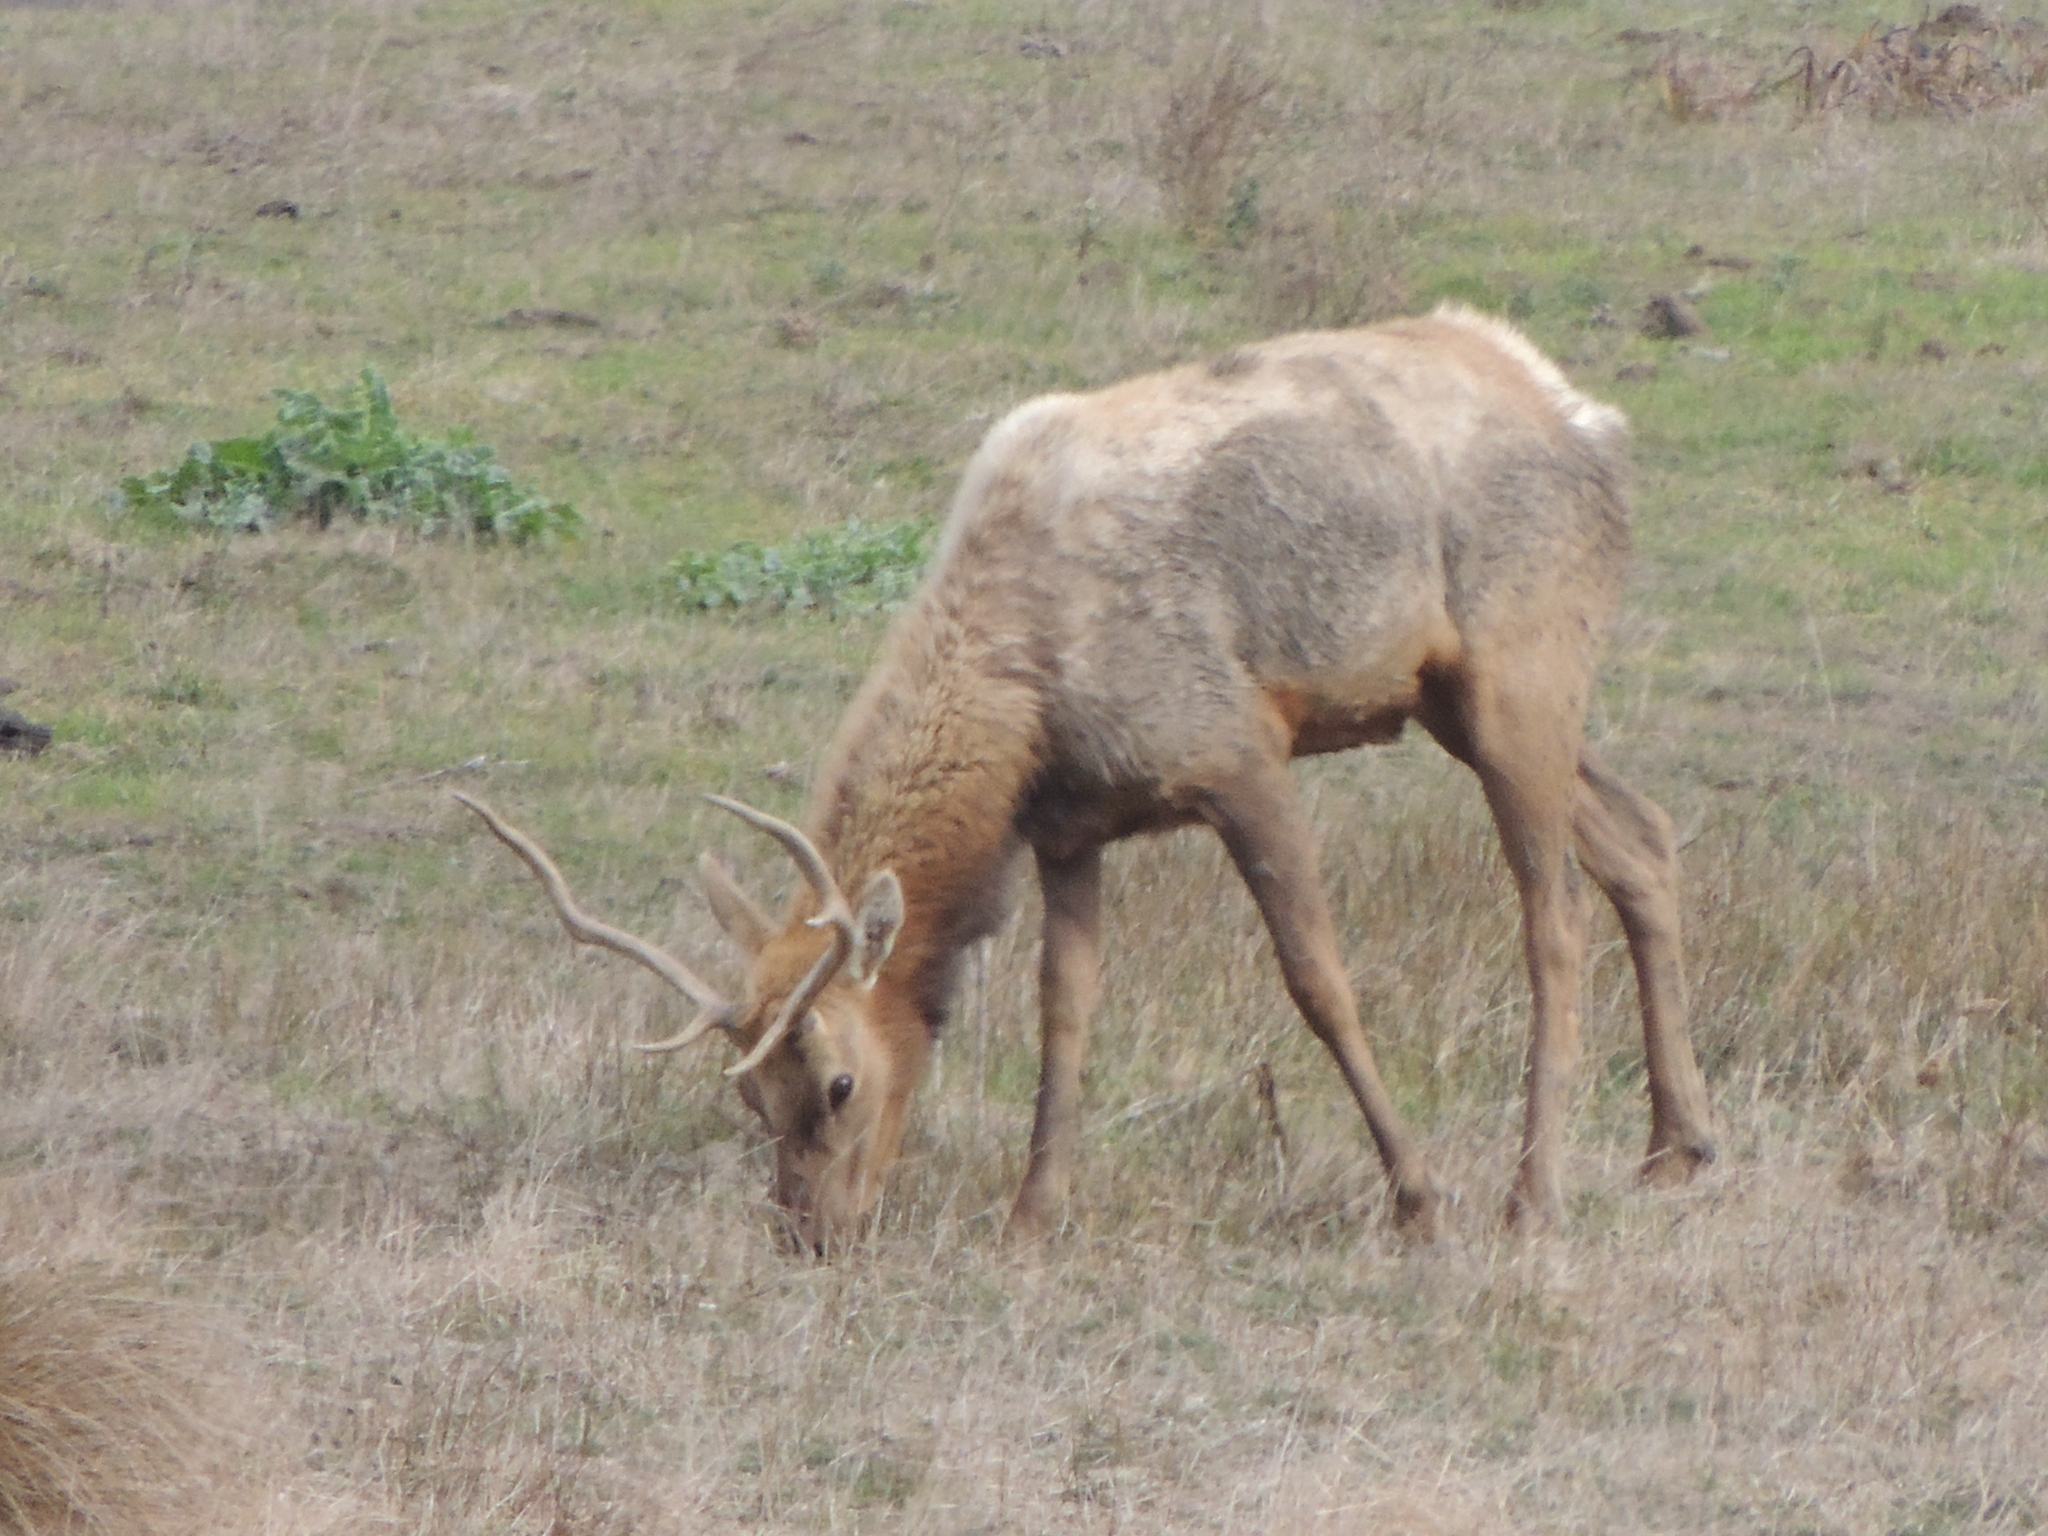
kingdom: Animalia
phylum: Chordata
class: Mammalia
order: Artiodactyla
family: Cervidae
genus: Cervus
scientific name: Cervus elaphus
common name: Red deer
